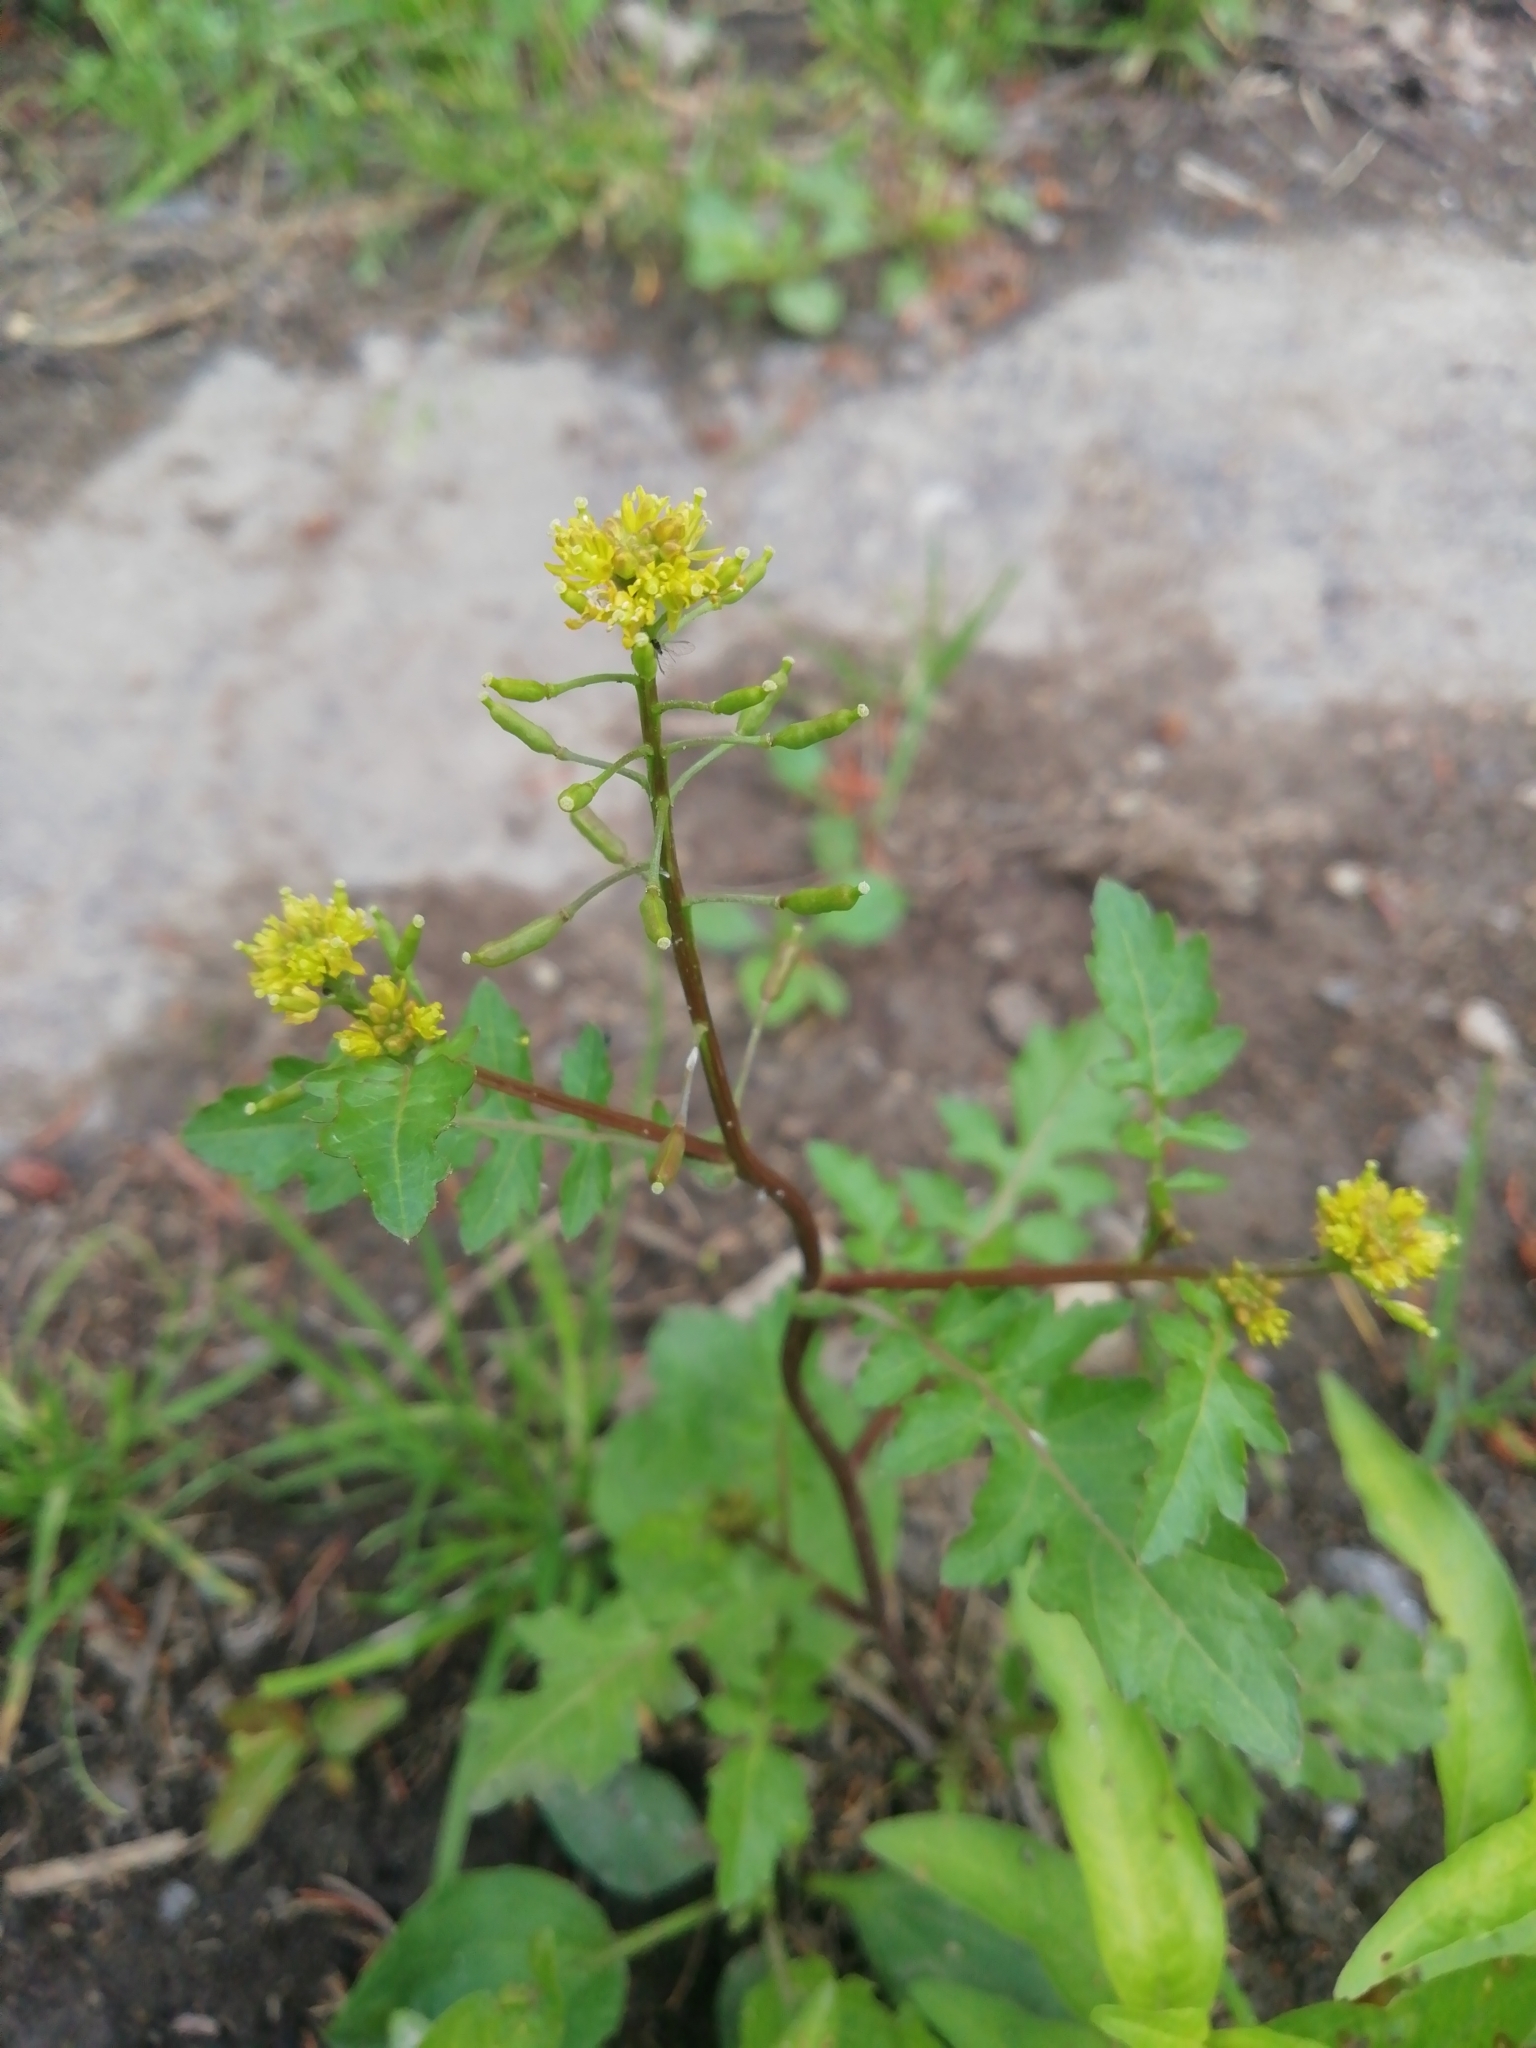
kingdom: Plantae
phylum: Tracheophyta
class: Magnoliopsida
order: Brassicales
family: Brassicaceae
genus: Rorippa
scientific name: Rorippa palustris
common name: Marsh yellow-cress
